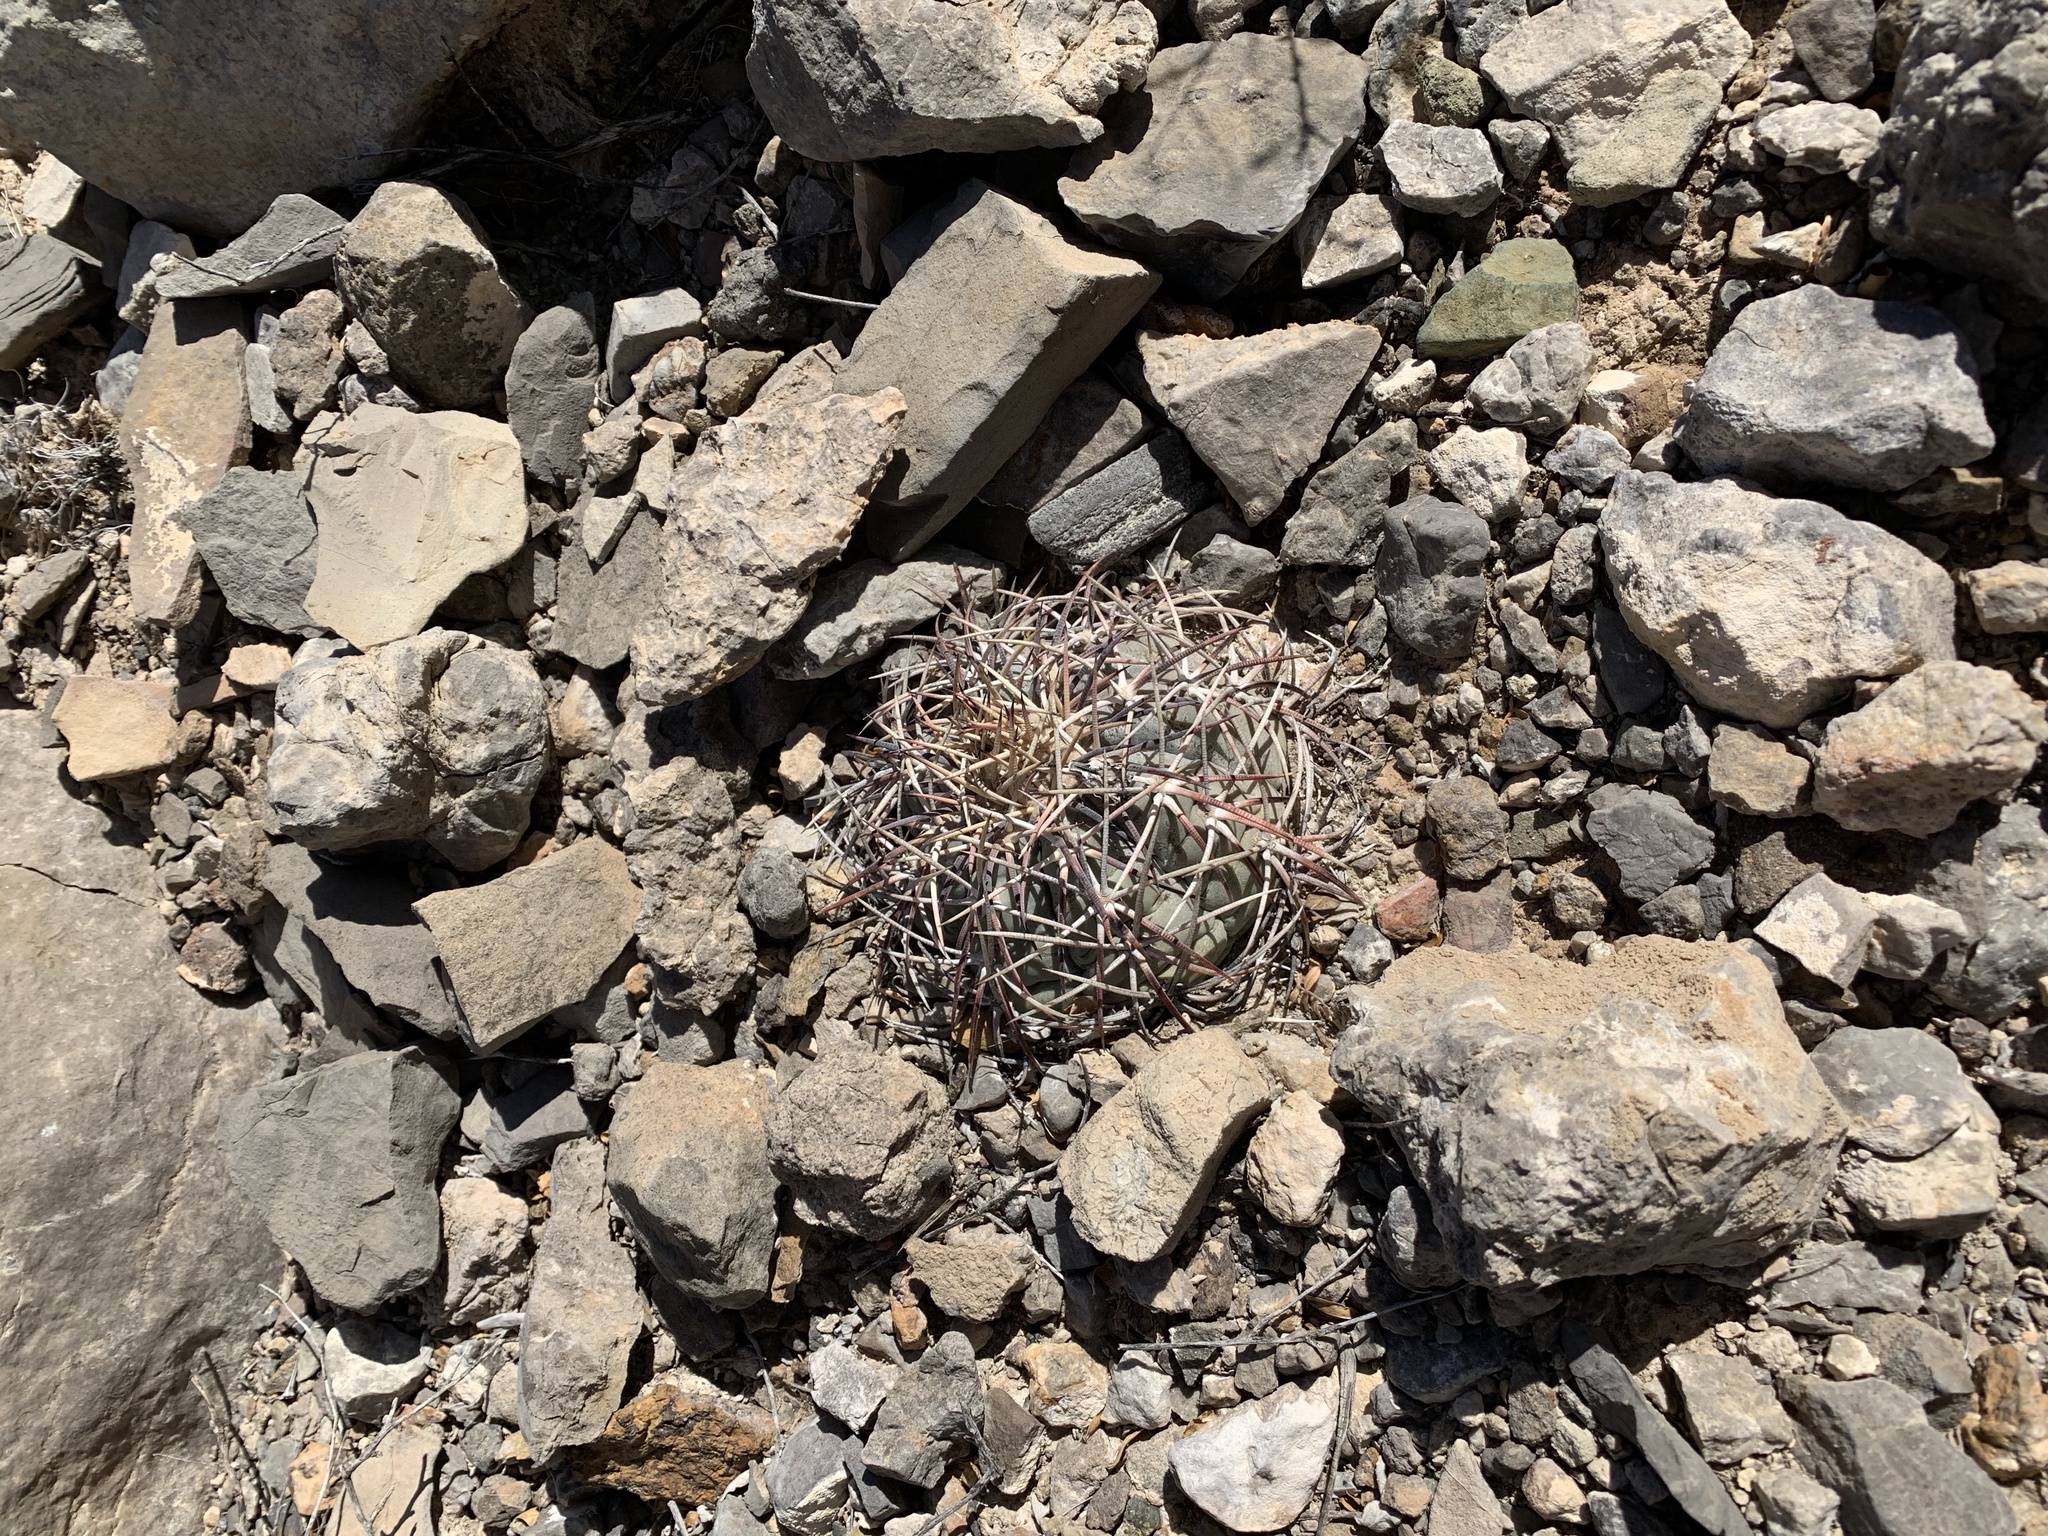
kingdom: Plantae
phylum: Tracheophyta
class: Magnoliopsida
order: Caryophyllales
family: Cactaceae
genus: Echinocactus
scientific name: Echinocactus horizonthalonius
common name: Devilshead
